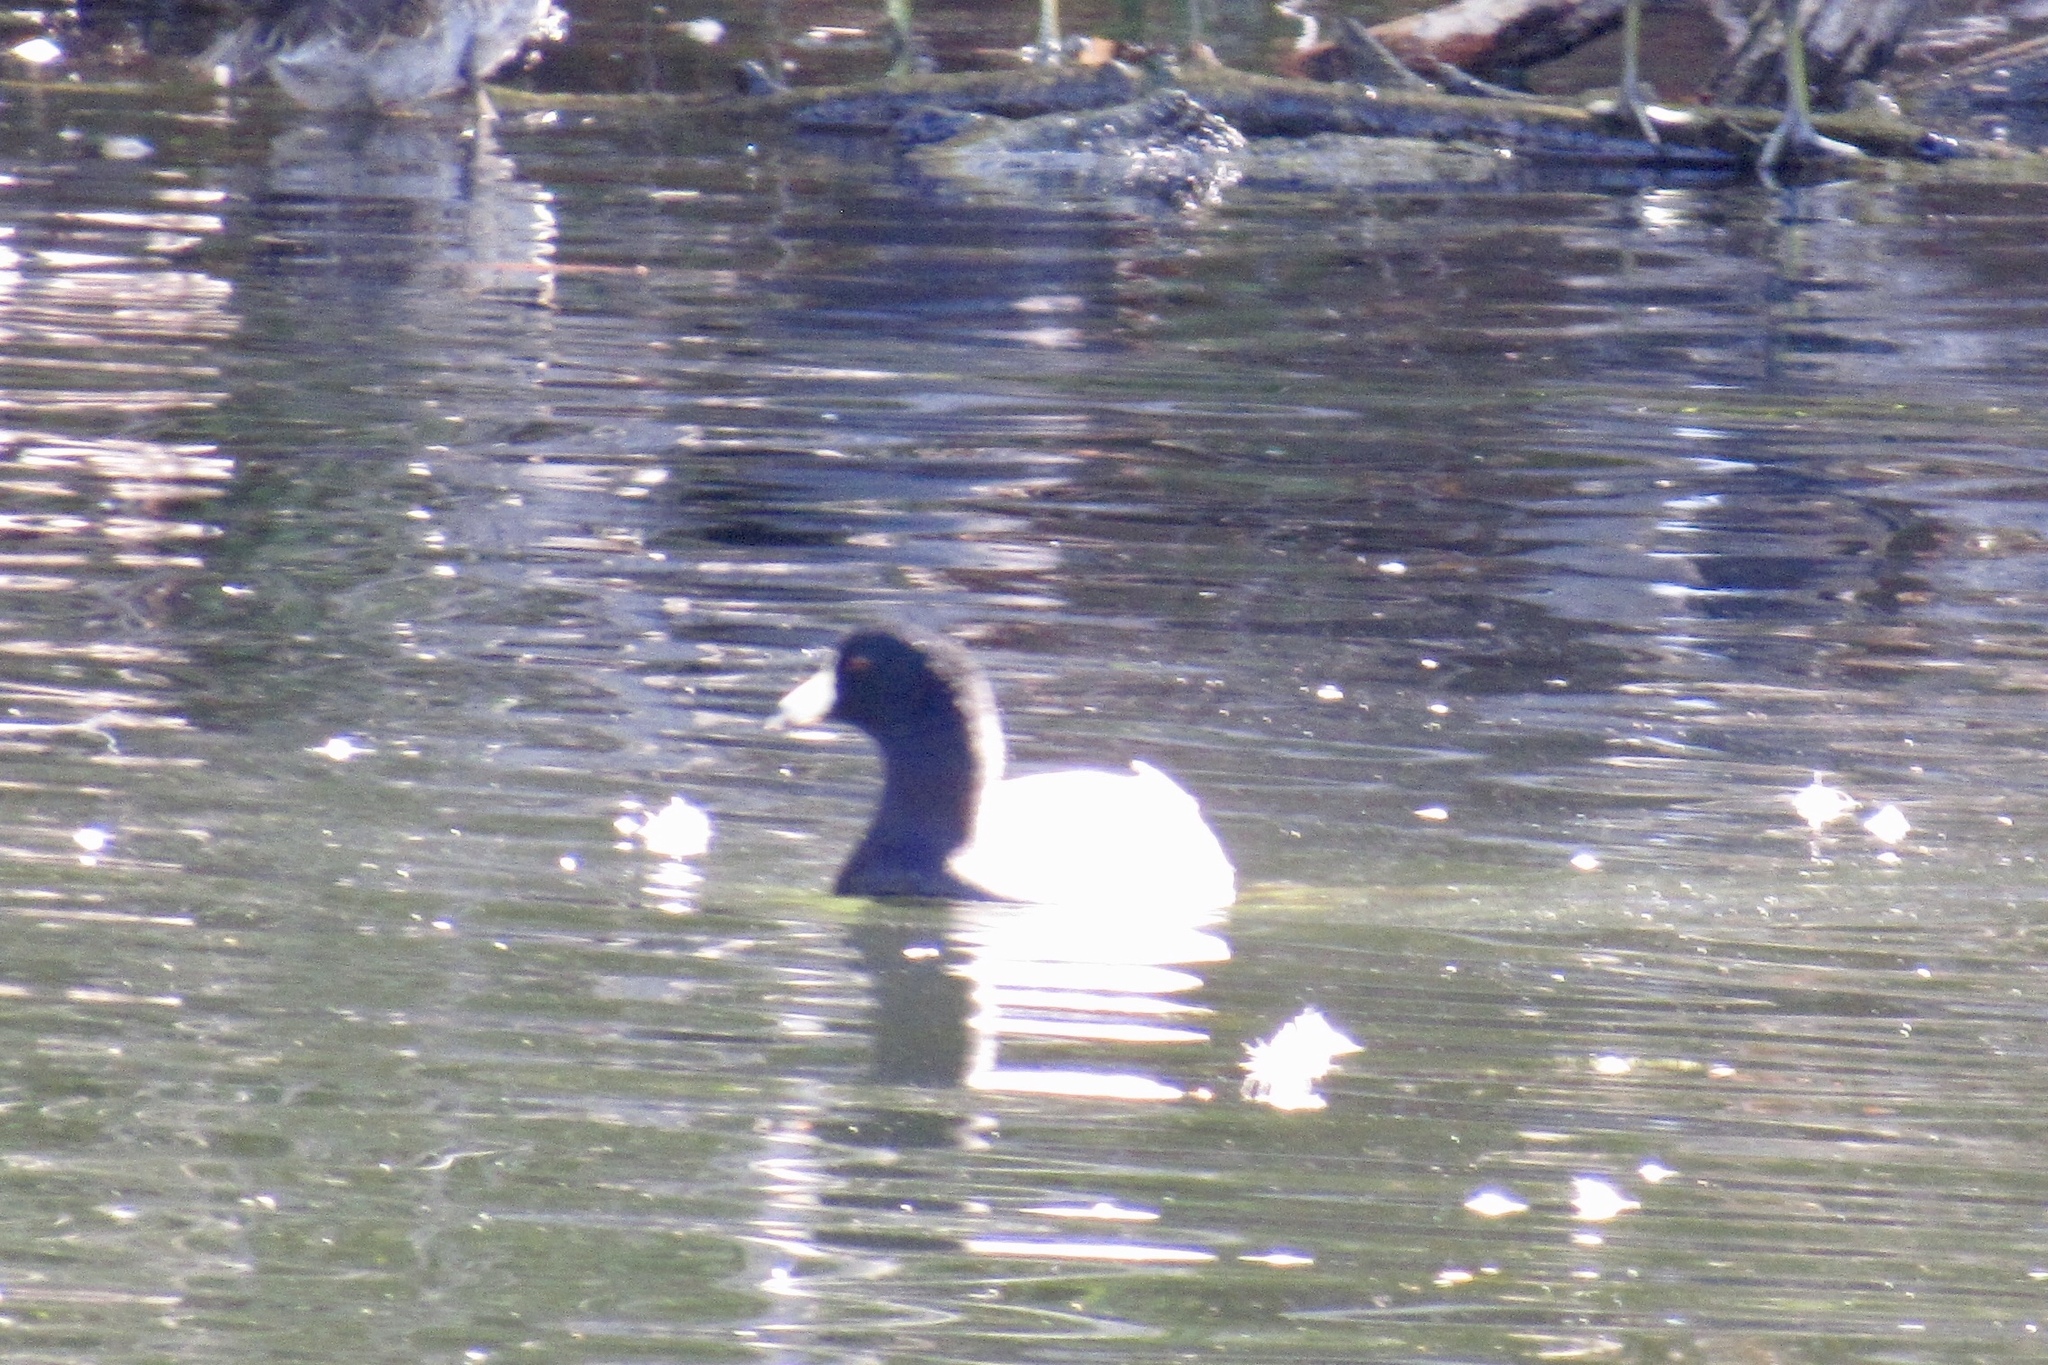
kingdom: Animalia
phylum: Chordata
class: Aves
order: Gruiformes
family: Rallidae
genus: Fulica
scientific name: Fulica americana
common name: American coot
